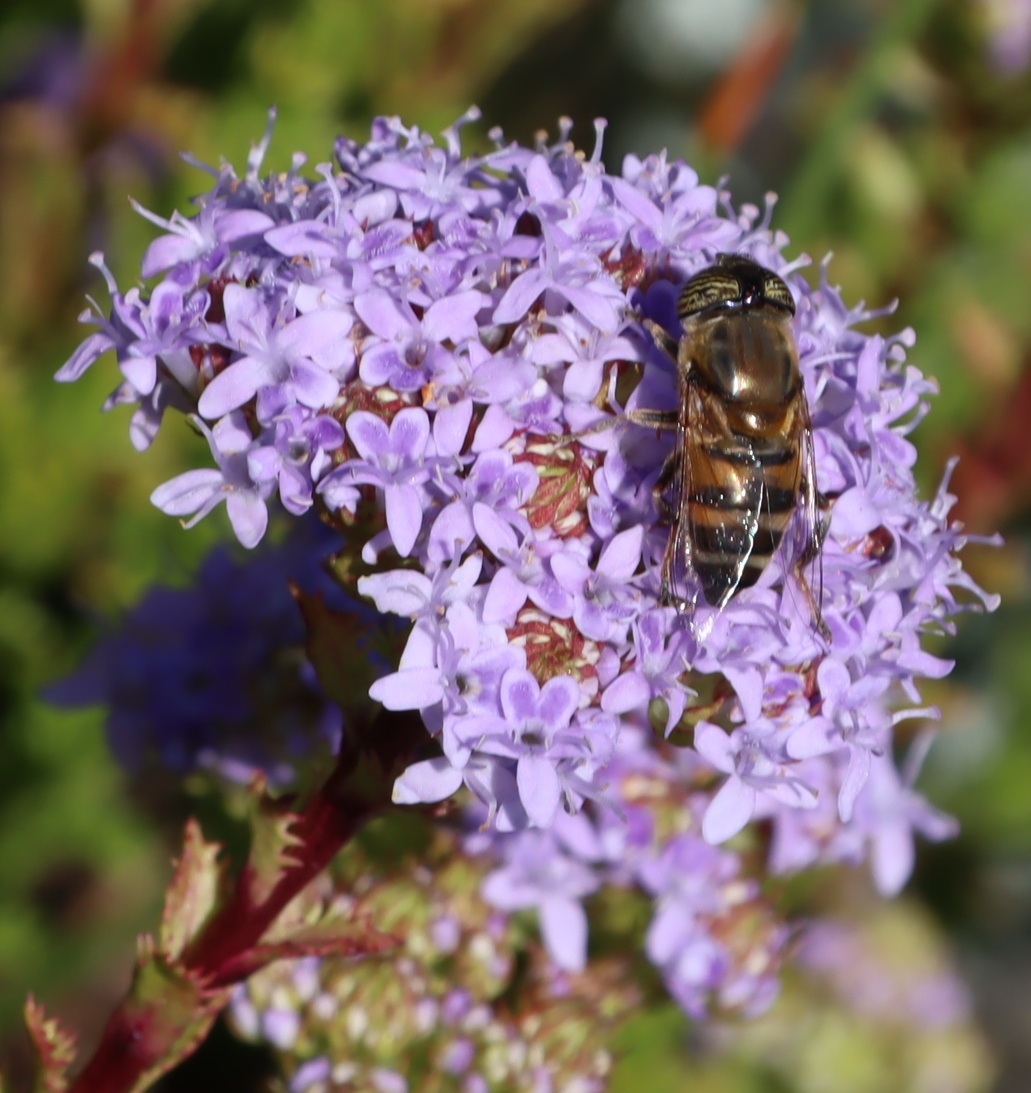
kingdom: Animalia
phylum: Arthropoda
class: Insecta
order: Diptera
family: Syrphidae
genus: Eristalinus
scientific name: Eristalinus taeniops
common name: Syrphid fly
